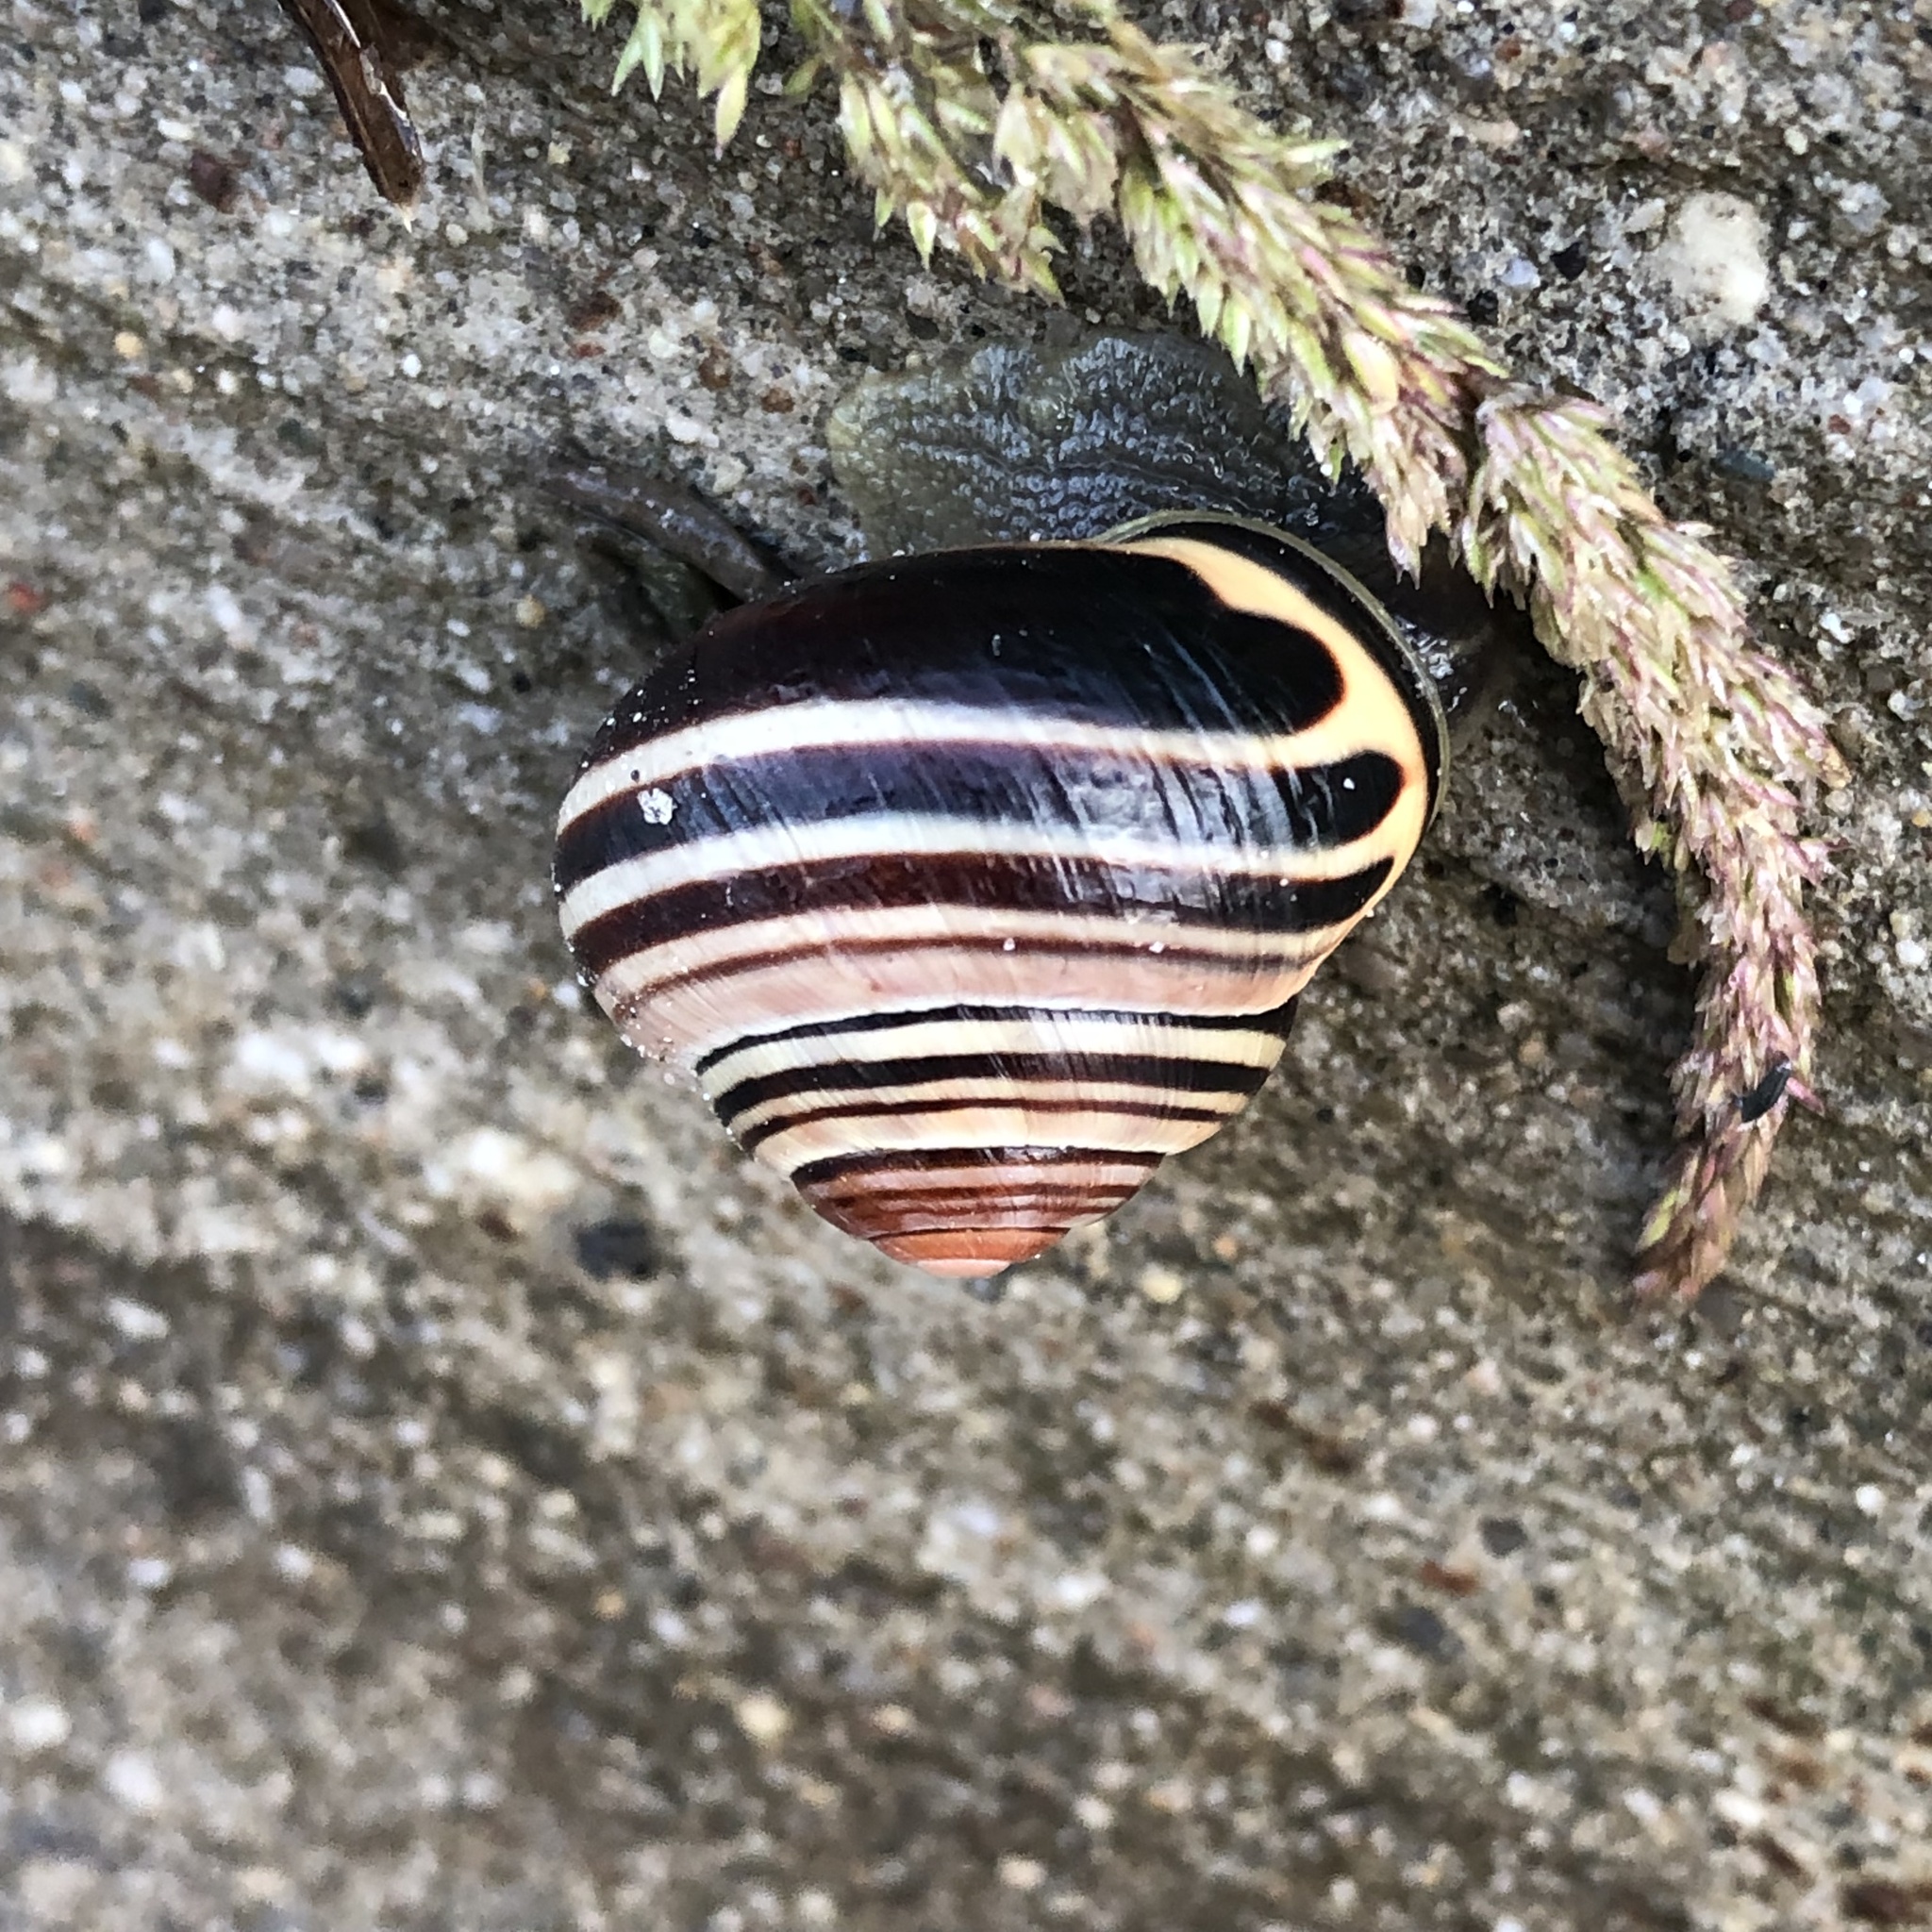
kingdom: Animalia
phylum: Mollusca
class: Gastropoda
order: Stylommatophora
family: Helicidae
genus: Cepaea
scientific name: Cepaea nemoralis
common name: Grovesnail
